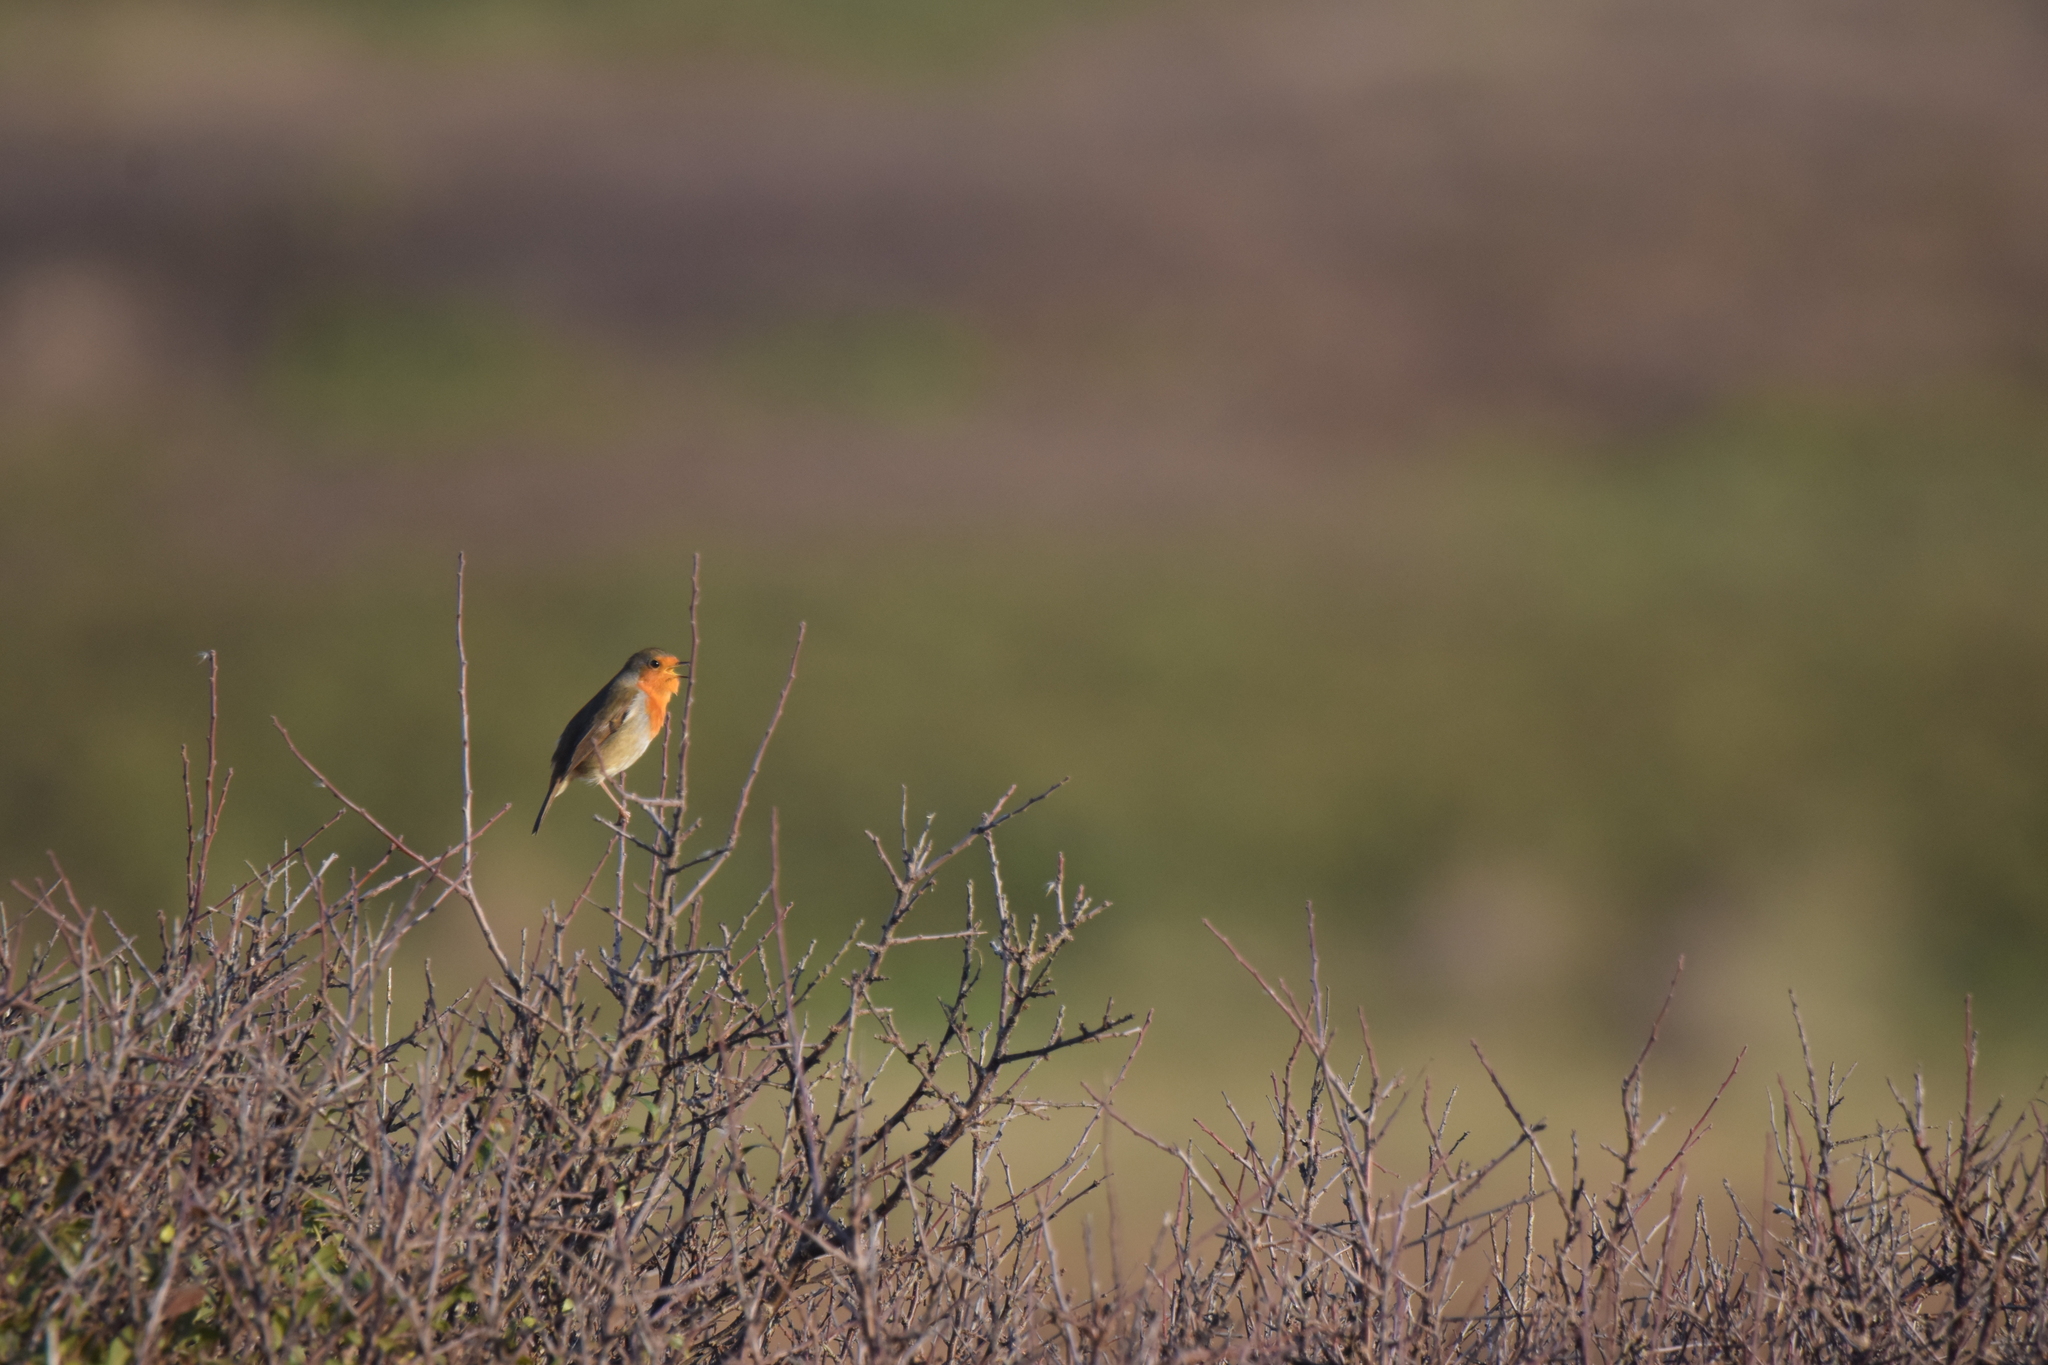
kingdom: Animalia
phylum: Chordata
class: Aves
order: Passeriformes
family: Muscicapidae
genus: Erithacus
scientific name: Erithacus rubecula
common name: European robin
